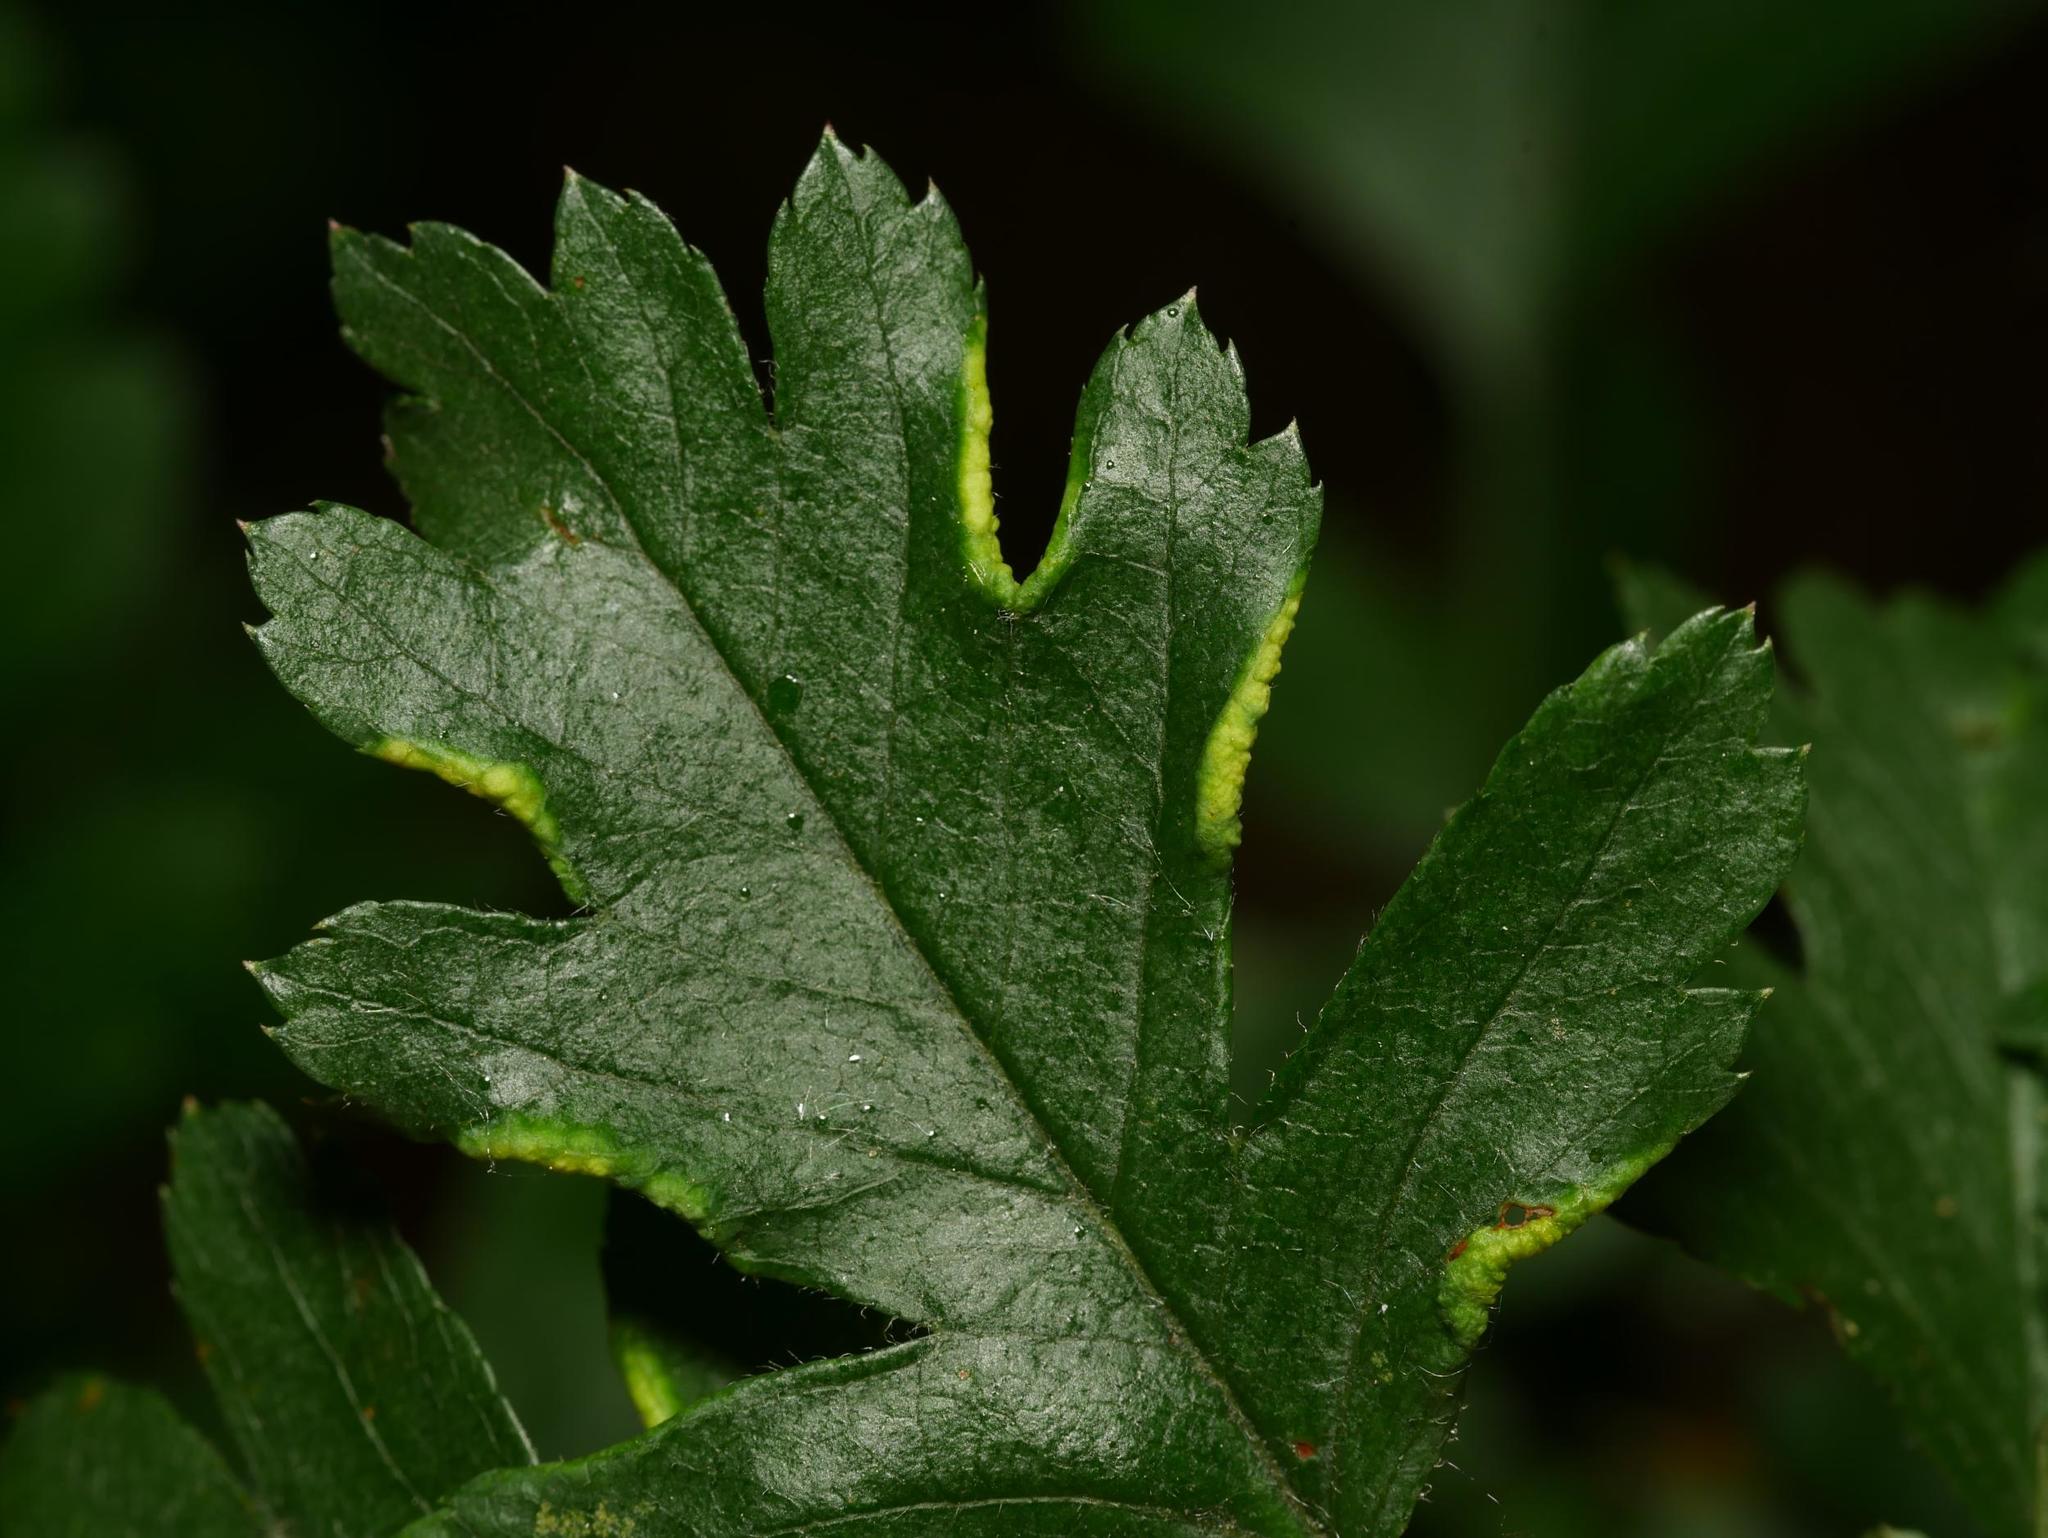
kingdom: Animalia
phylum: Arthropoda
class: Arachnida
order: Trombidiformes
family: Eriophyidae
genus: Phyllocoptes
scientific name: Phyllocoptes goniothorax
